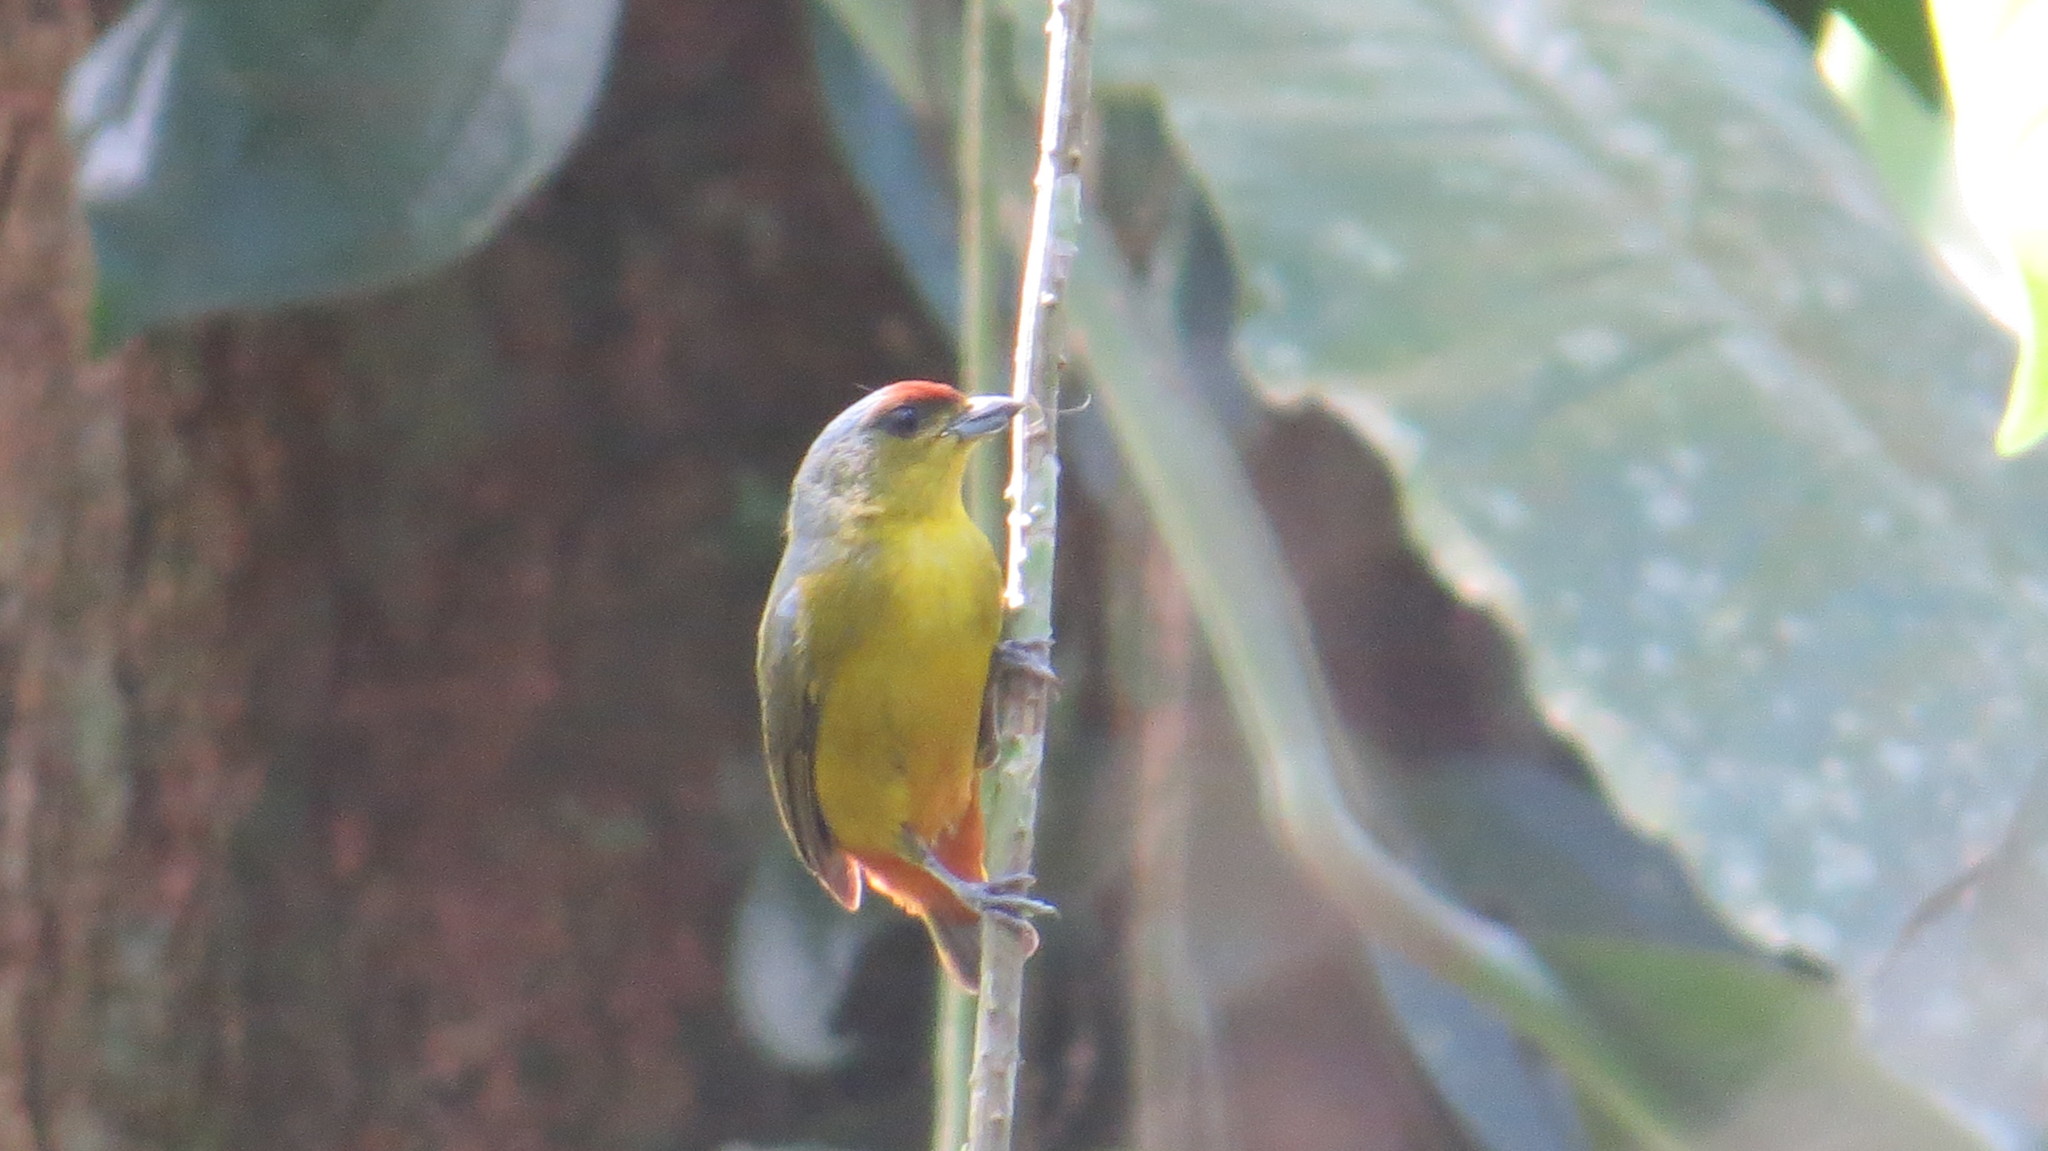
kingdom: Animalia
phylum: Chordata
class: Aves
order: Passeriformes
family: Fringillidae
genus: Euphonia
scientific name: Euphonia gouldi
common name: Olive-backed euphonia
